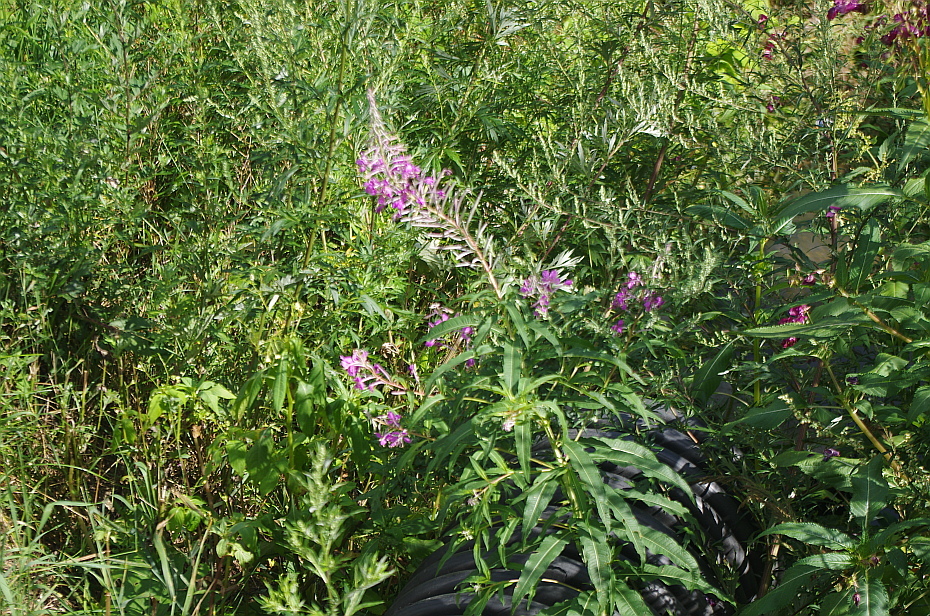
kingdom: Plantae
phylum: Tracheophyta
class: Magnoliopsida
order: Myrtales
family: Onagraceae
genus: Chamaenerion
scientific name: Chamaenerion angustifolium
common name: Fireweed
